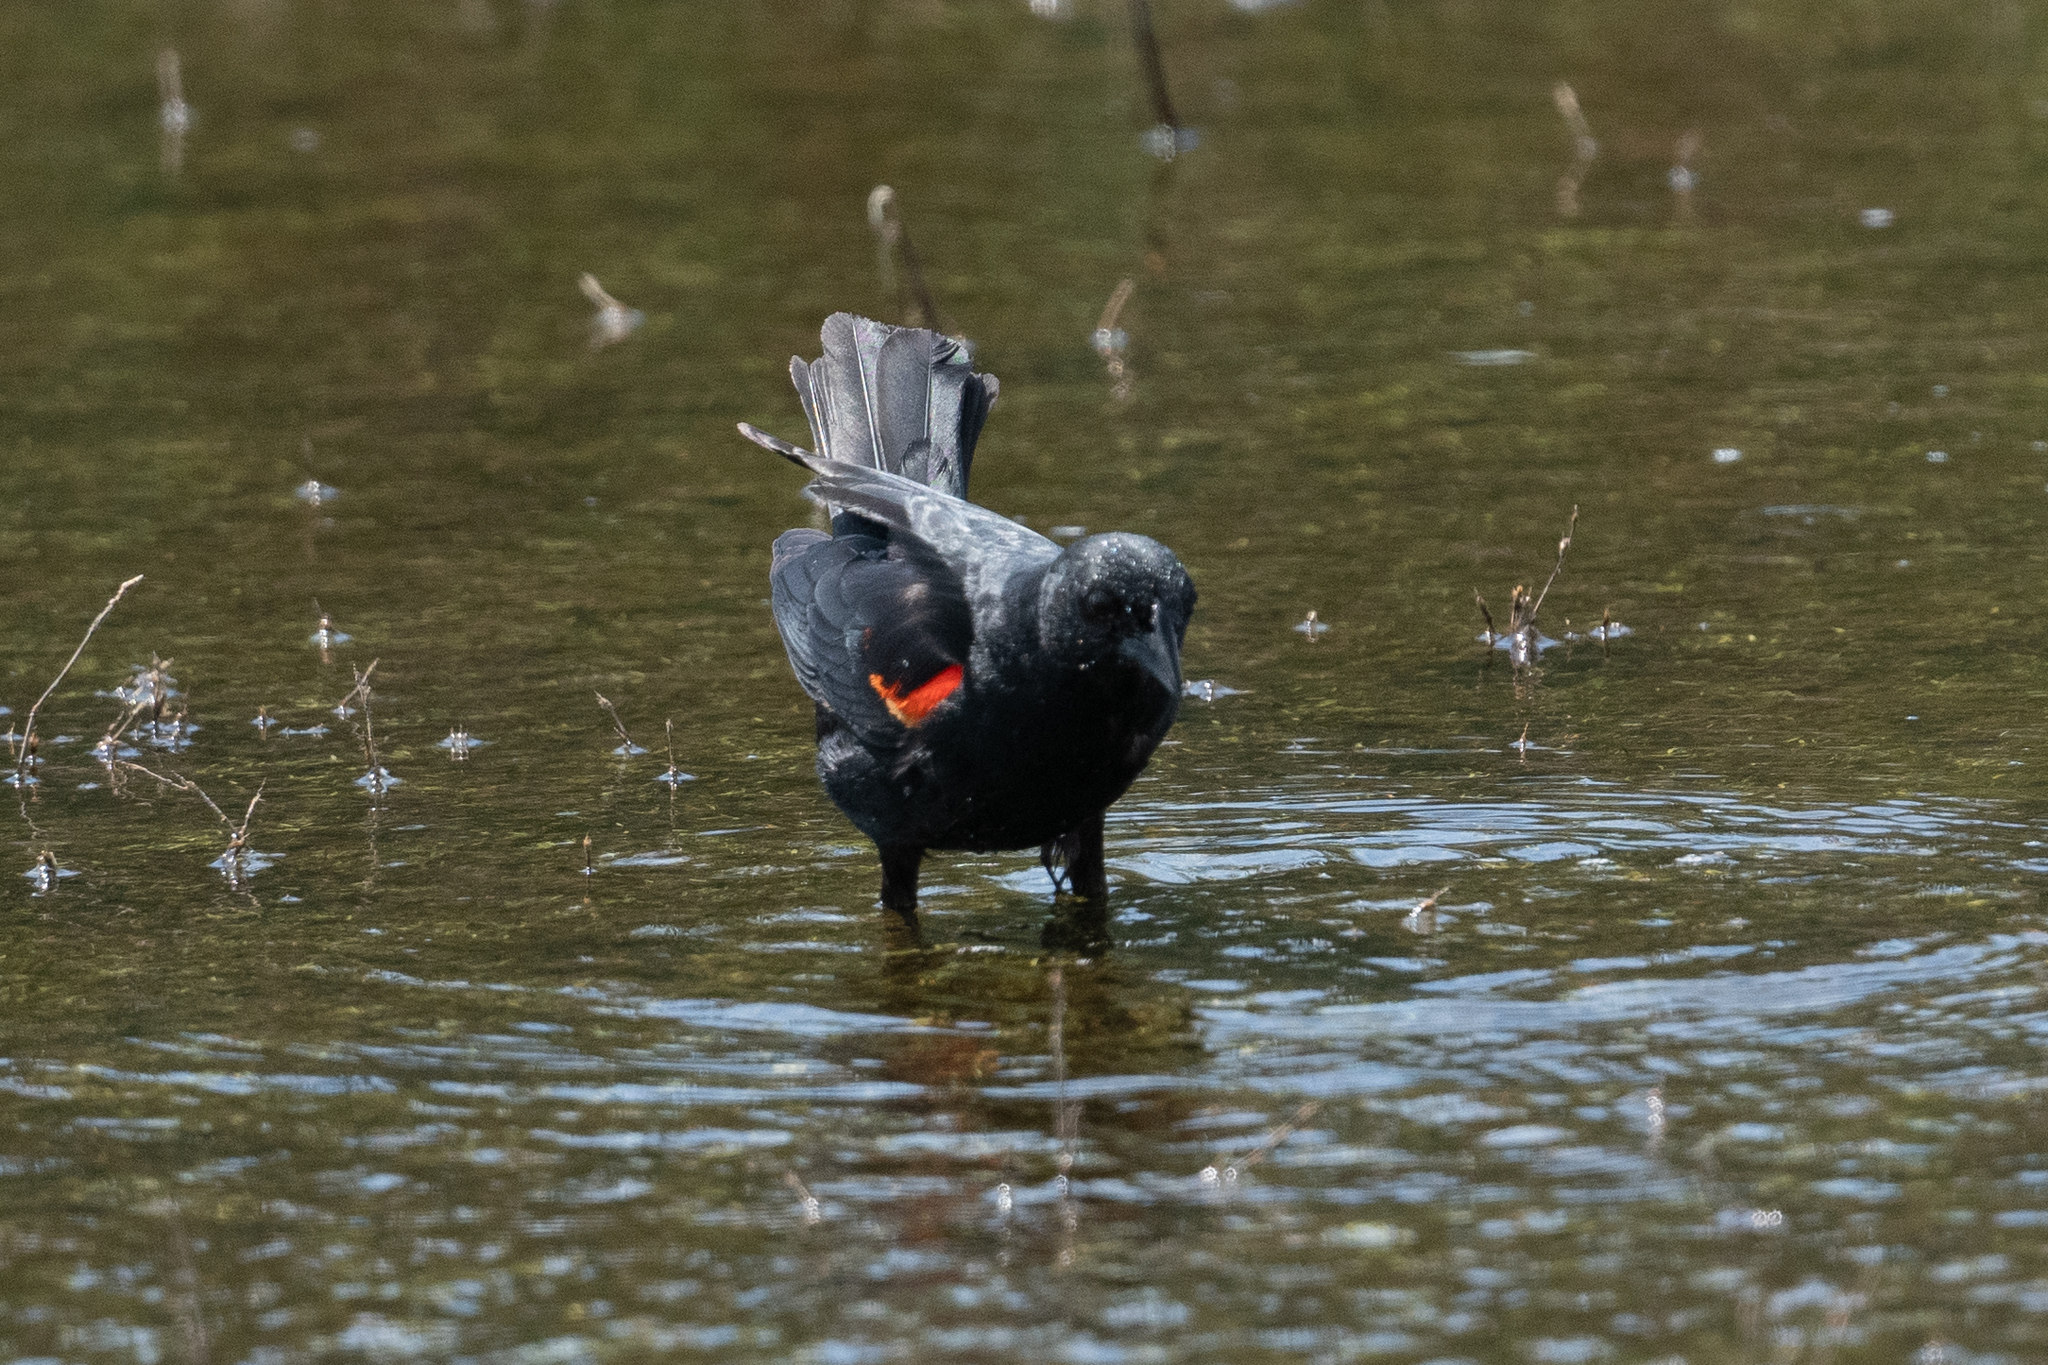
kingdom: Animalia
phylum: Chordata
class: Aves
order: Passeriformes
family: Icteridae
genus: Agelaius
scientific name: Agelaius phoeniceus
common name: Red-winged blackbird
